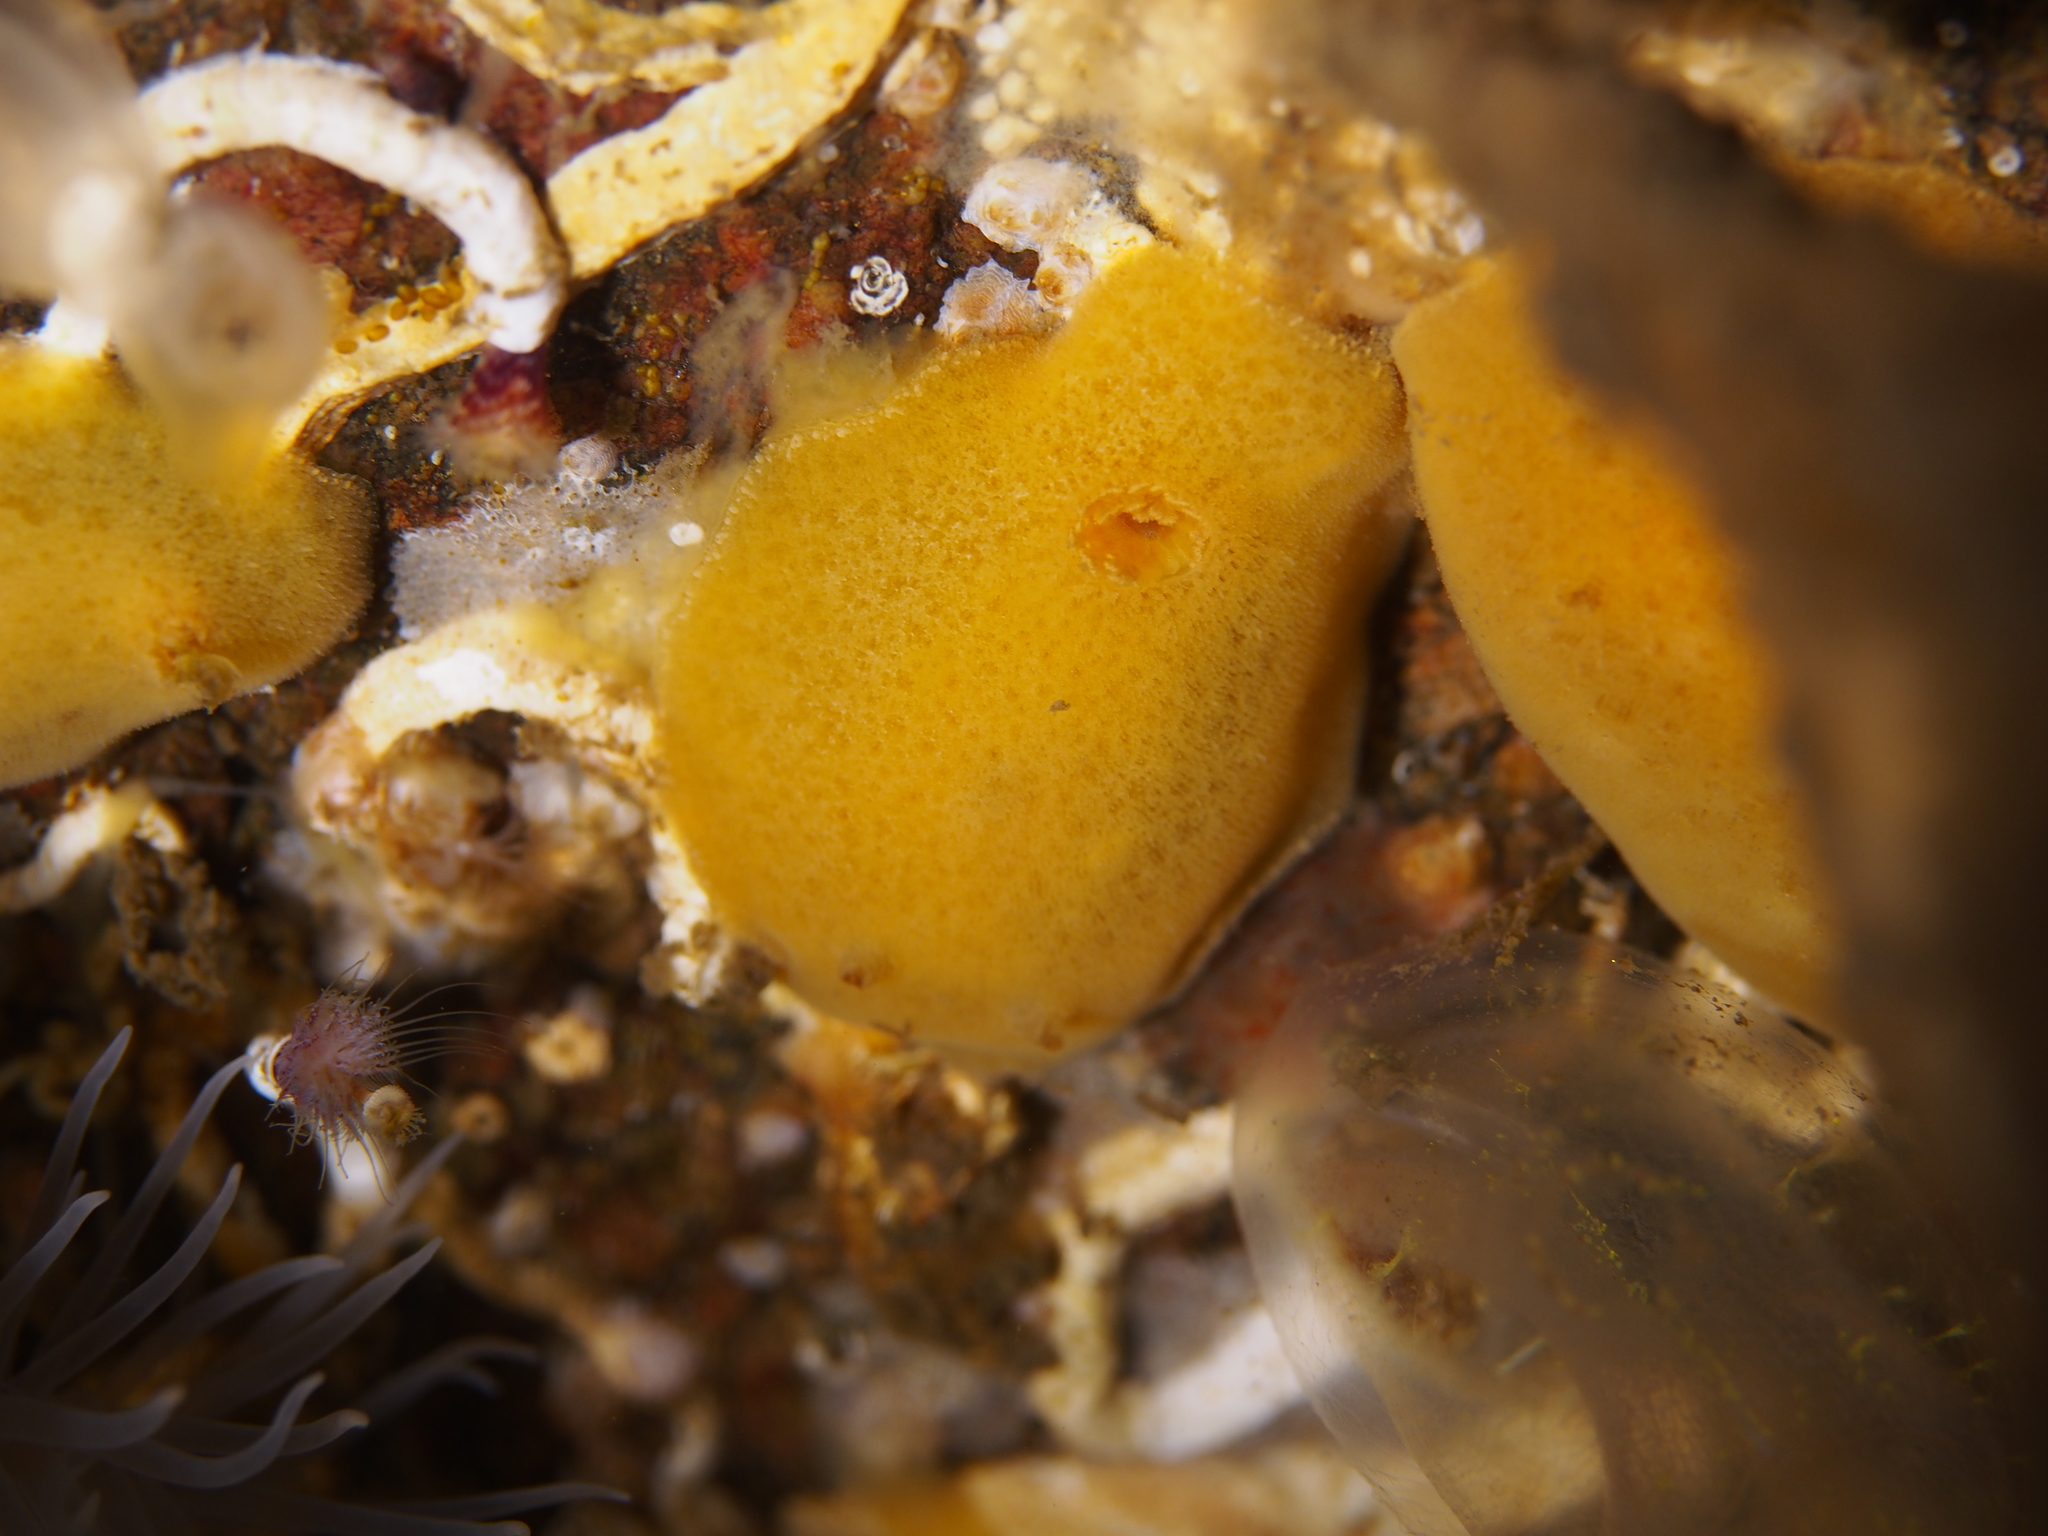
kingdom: Animalia
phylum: Mollusca
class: Gastropoda
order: Nudibranchia
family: Discodorididae
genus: Jorunna
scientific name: Jorunna tomentosa
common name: Grey sea slug
